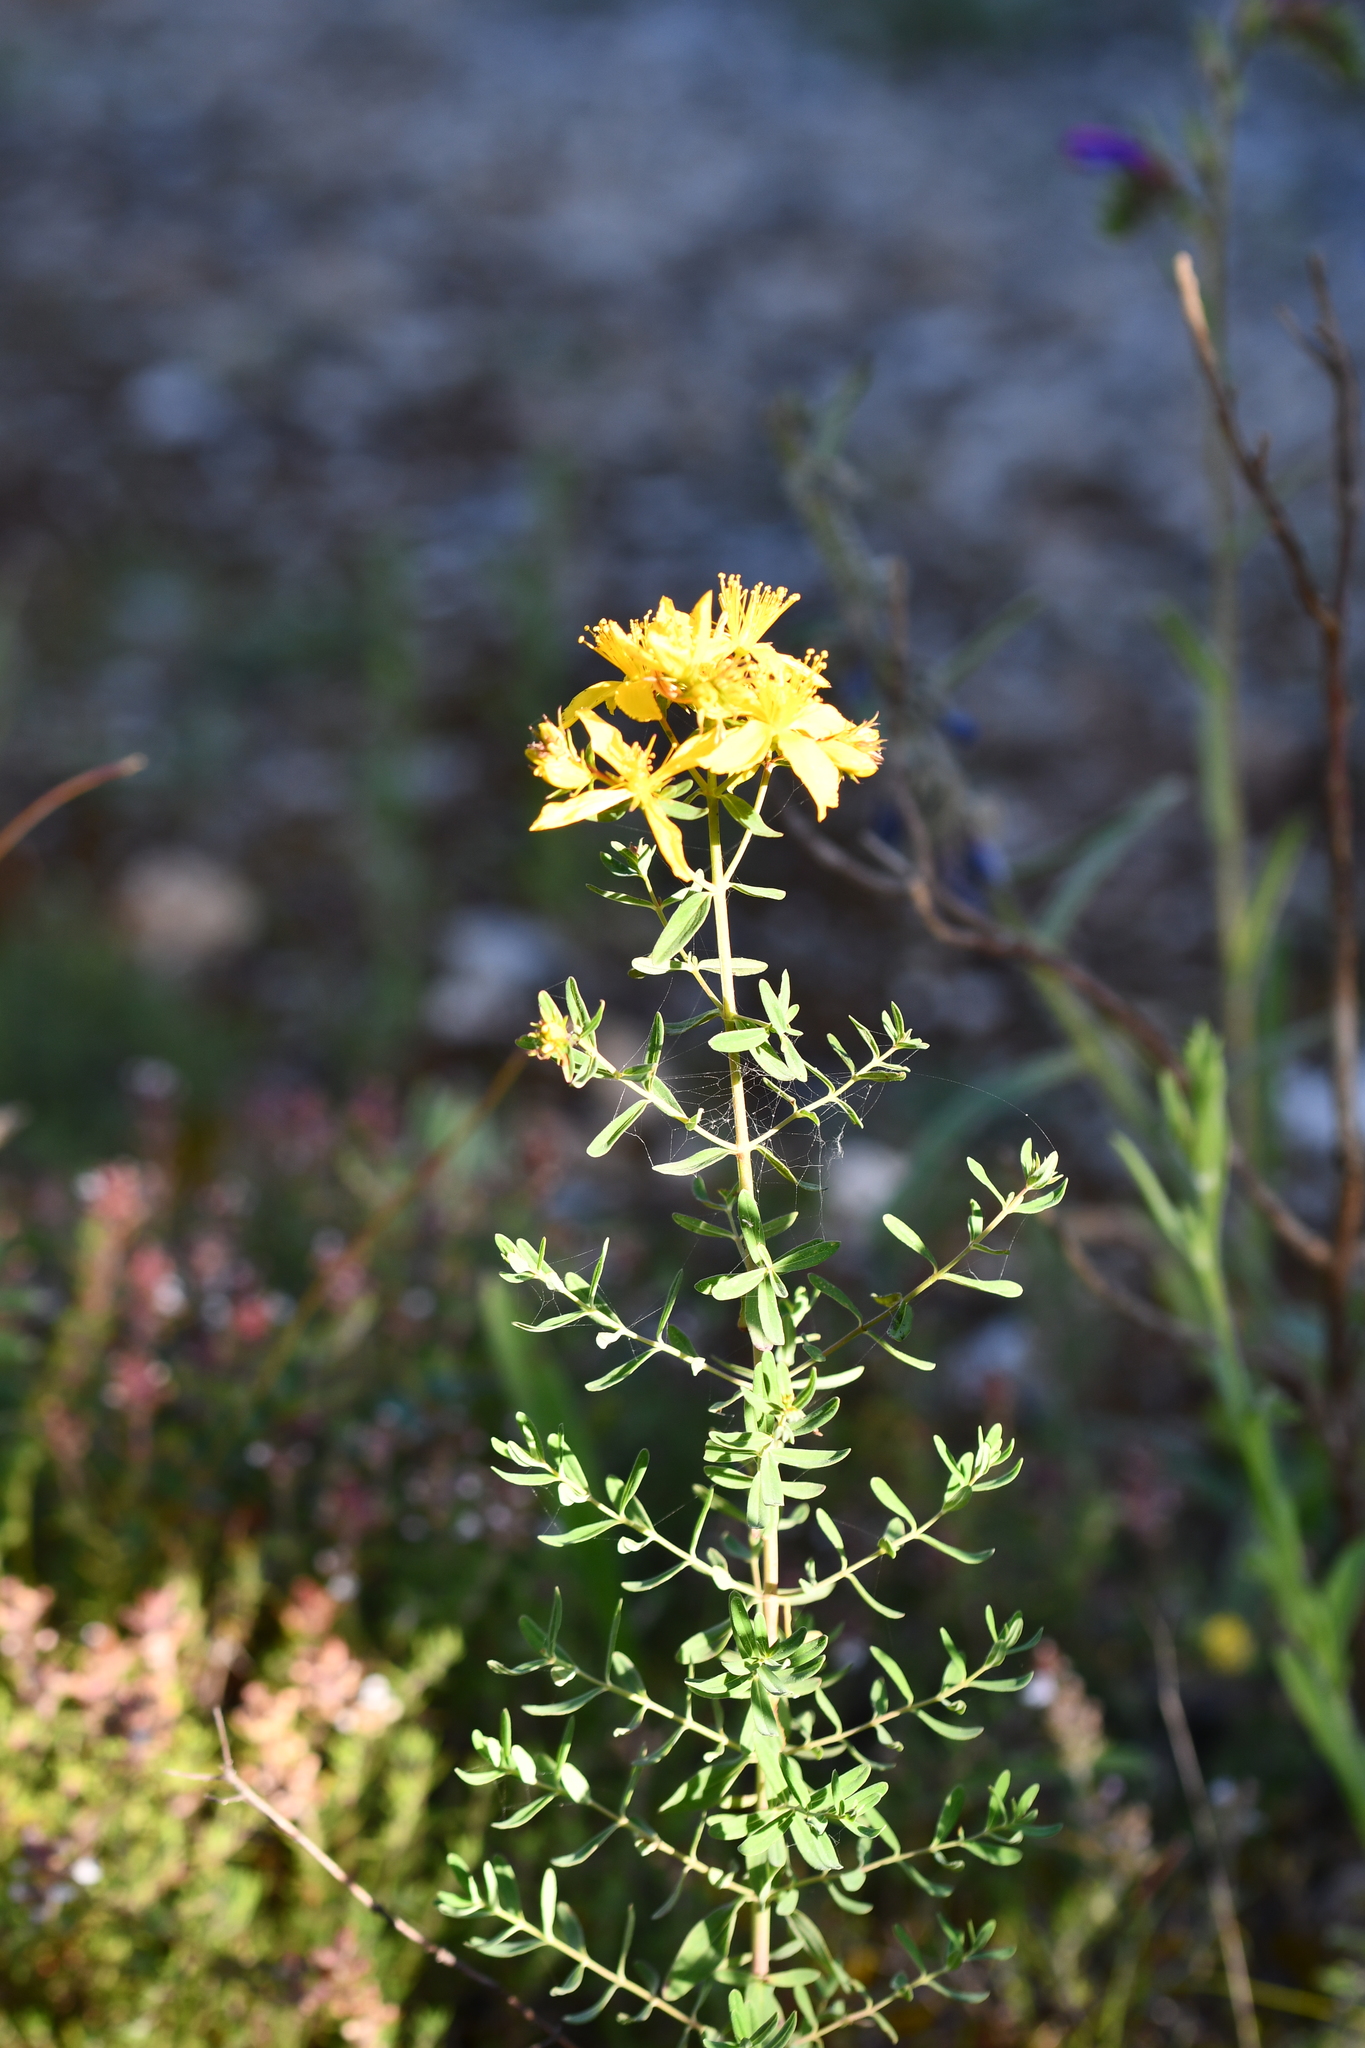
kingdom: Plantae
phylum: Tracheophyta
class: Magnoliopsida
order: Malpighiales
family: Hypericaceae
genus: Hypericum
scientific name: Hypericum perforatum
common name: Common st. johnswort
